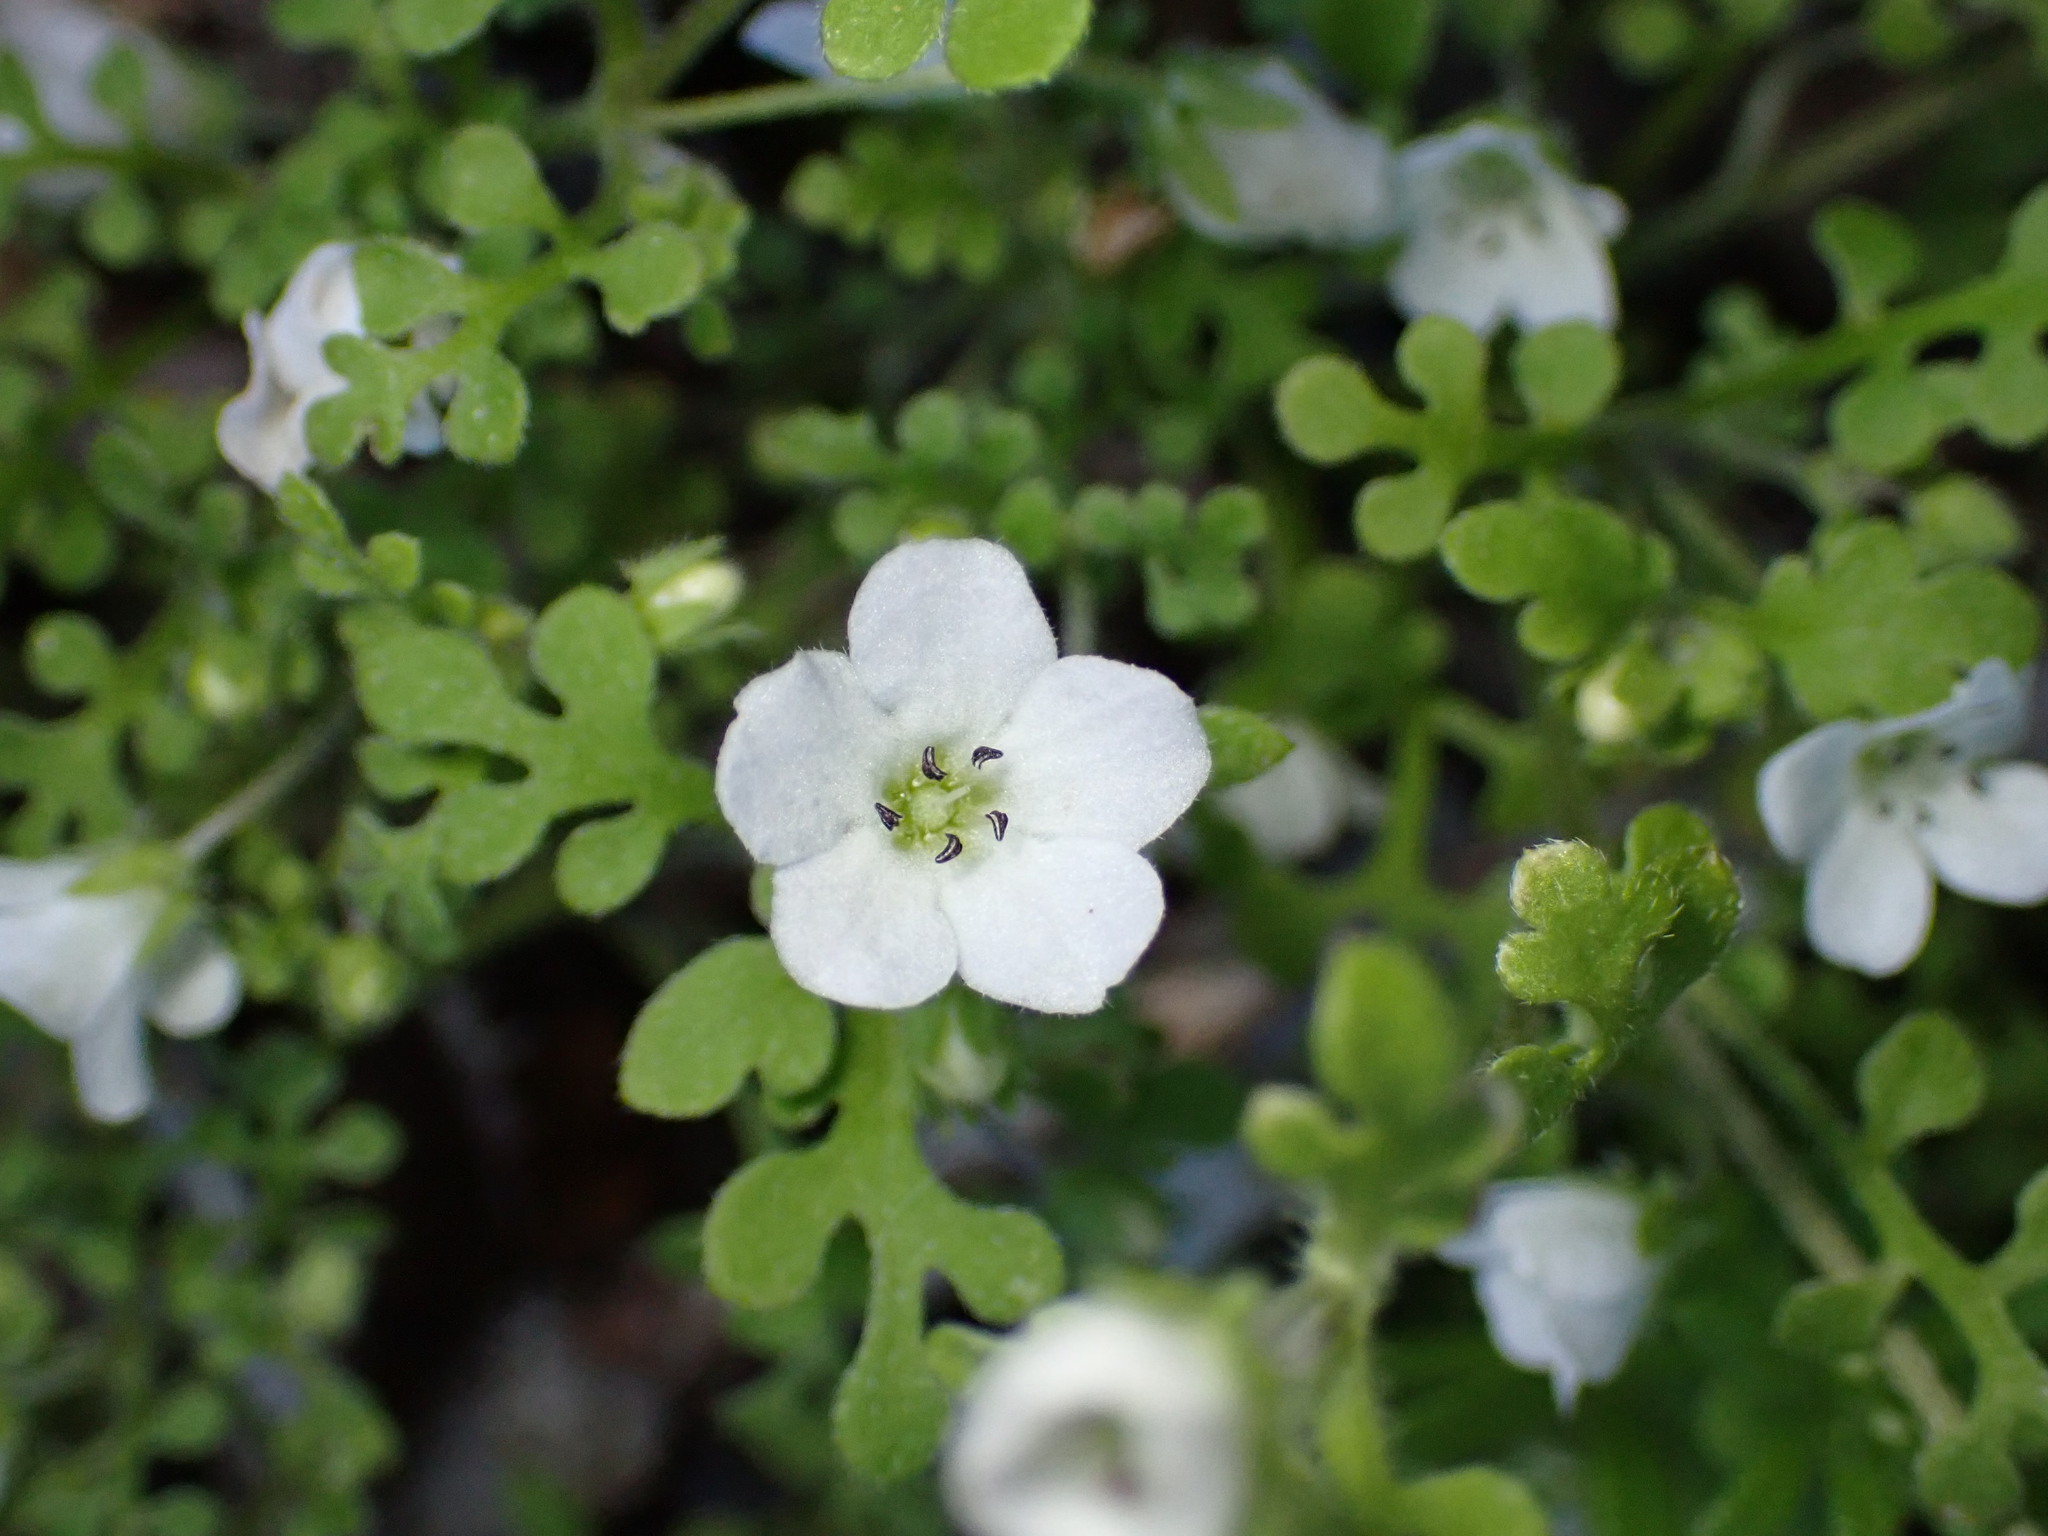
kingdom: Plantae
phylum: Tracheophyta
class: Magnoliopsida
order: Boraginales
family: Hydrophyllaceae
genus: Nemophila
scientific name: Nemophila heterophylla
